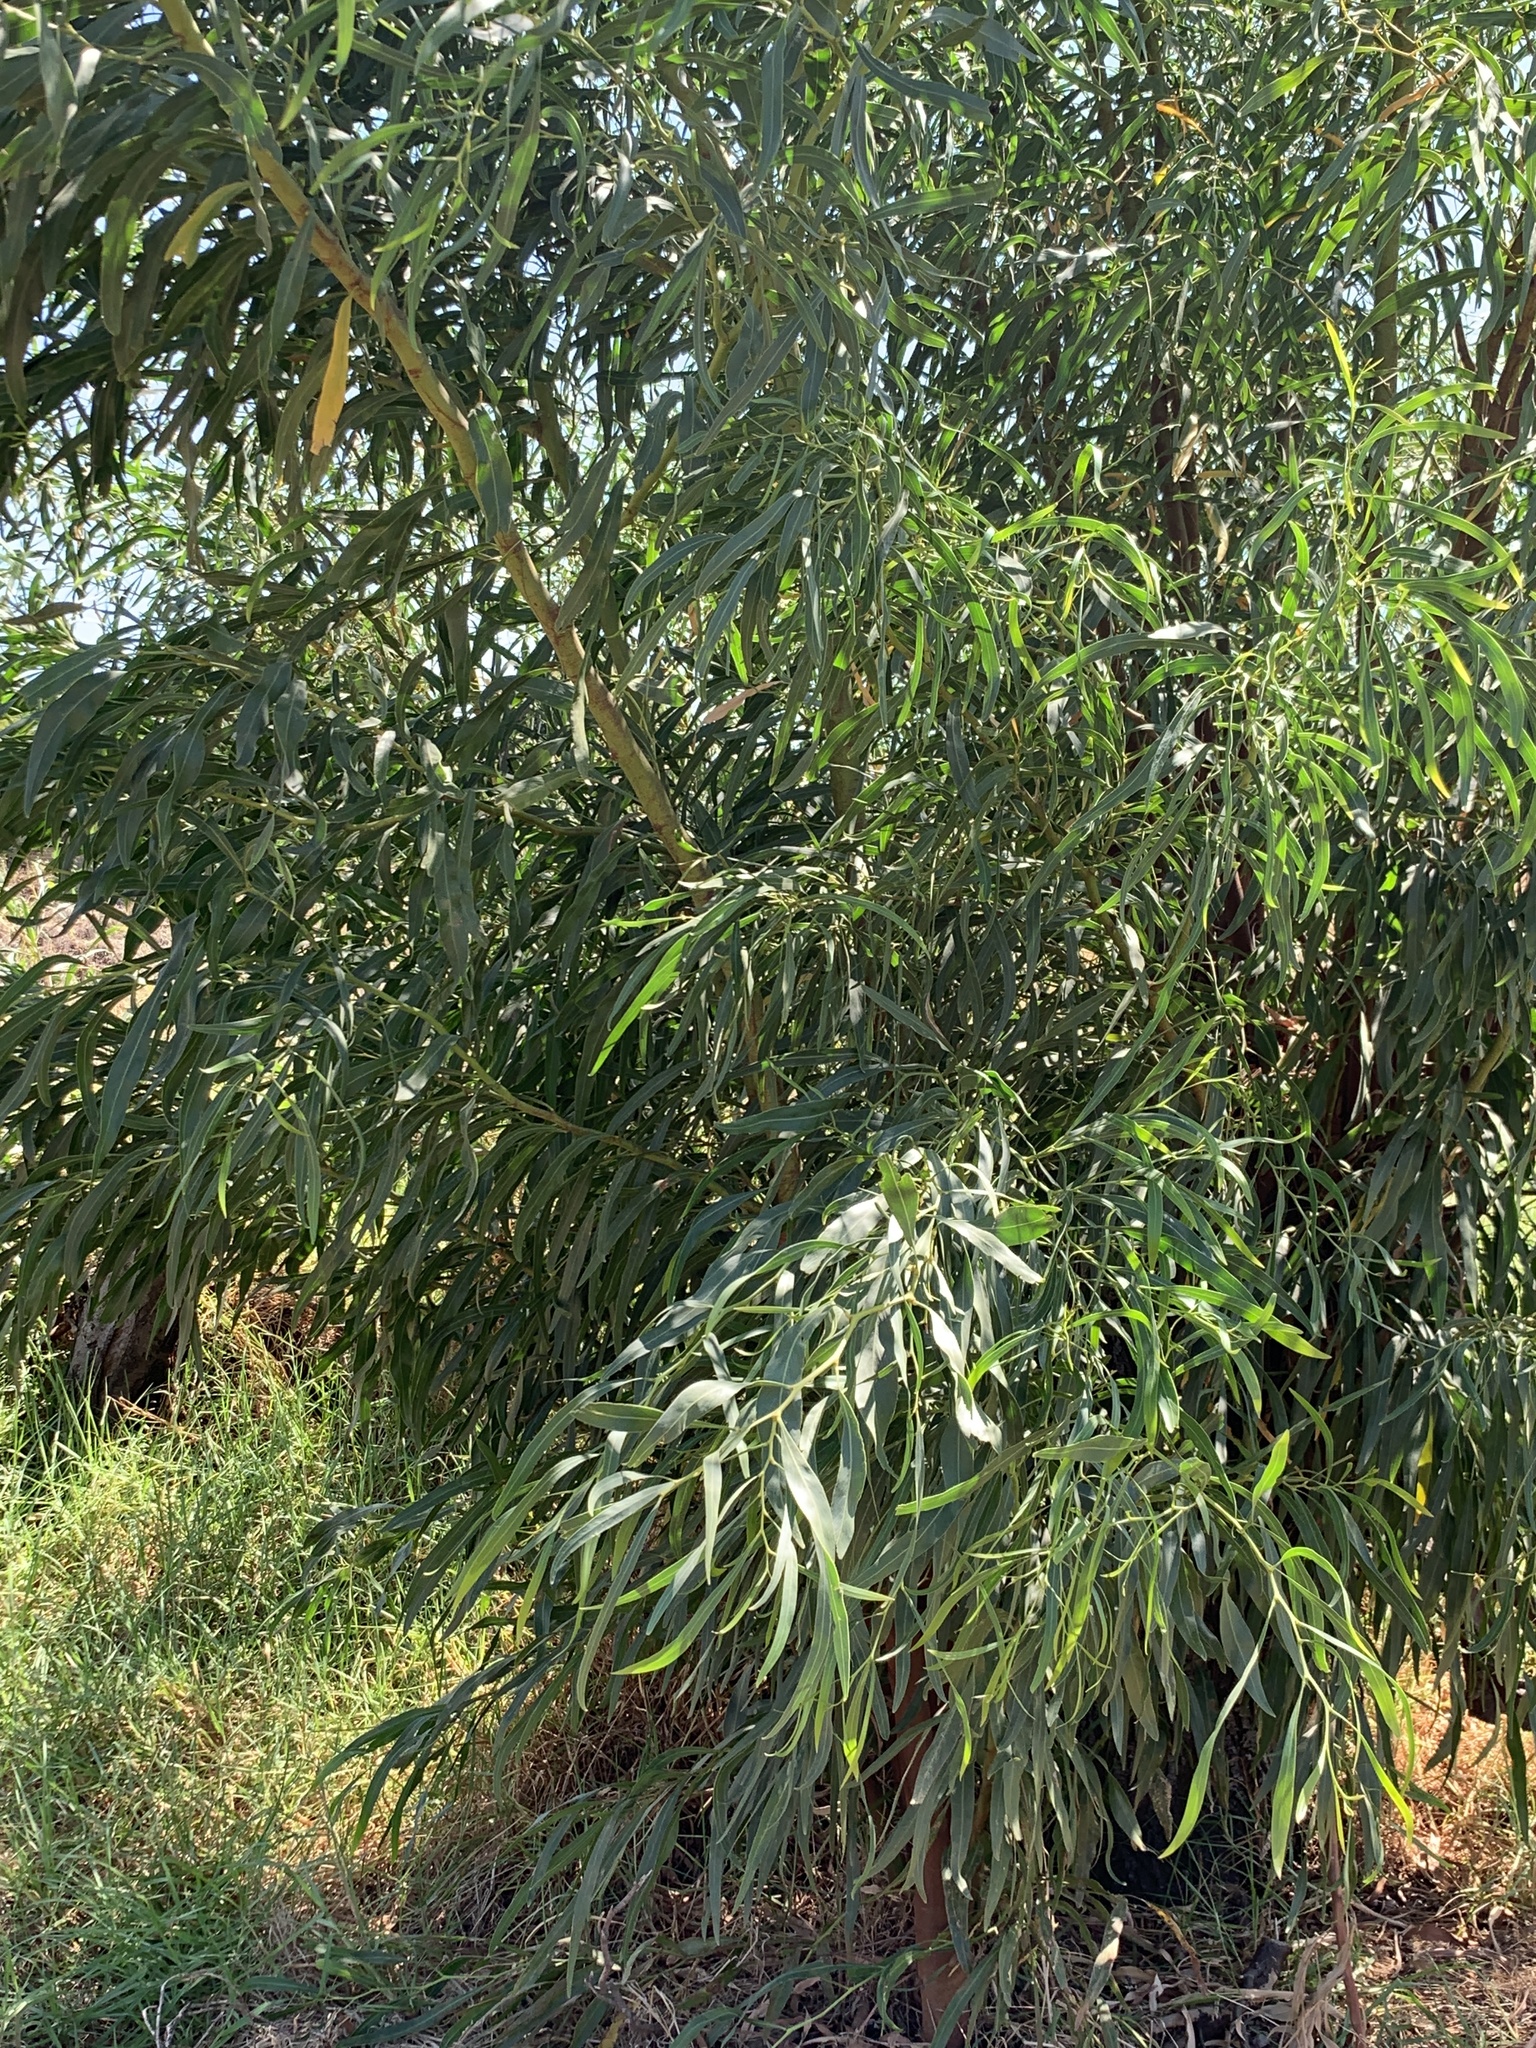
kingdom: Plantae
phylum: Tracheophyta
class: Magnoliopsida
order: Fabales
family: Fabaceae
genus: Acacia
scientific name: Acacia saligna
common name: Orange wattle
